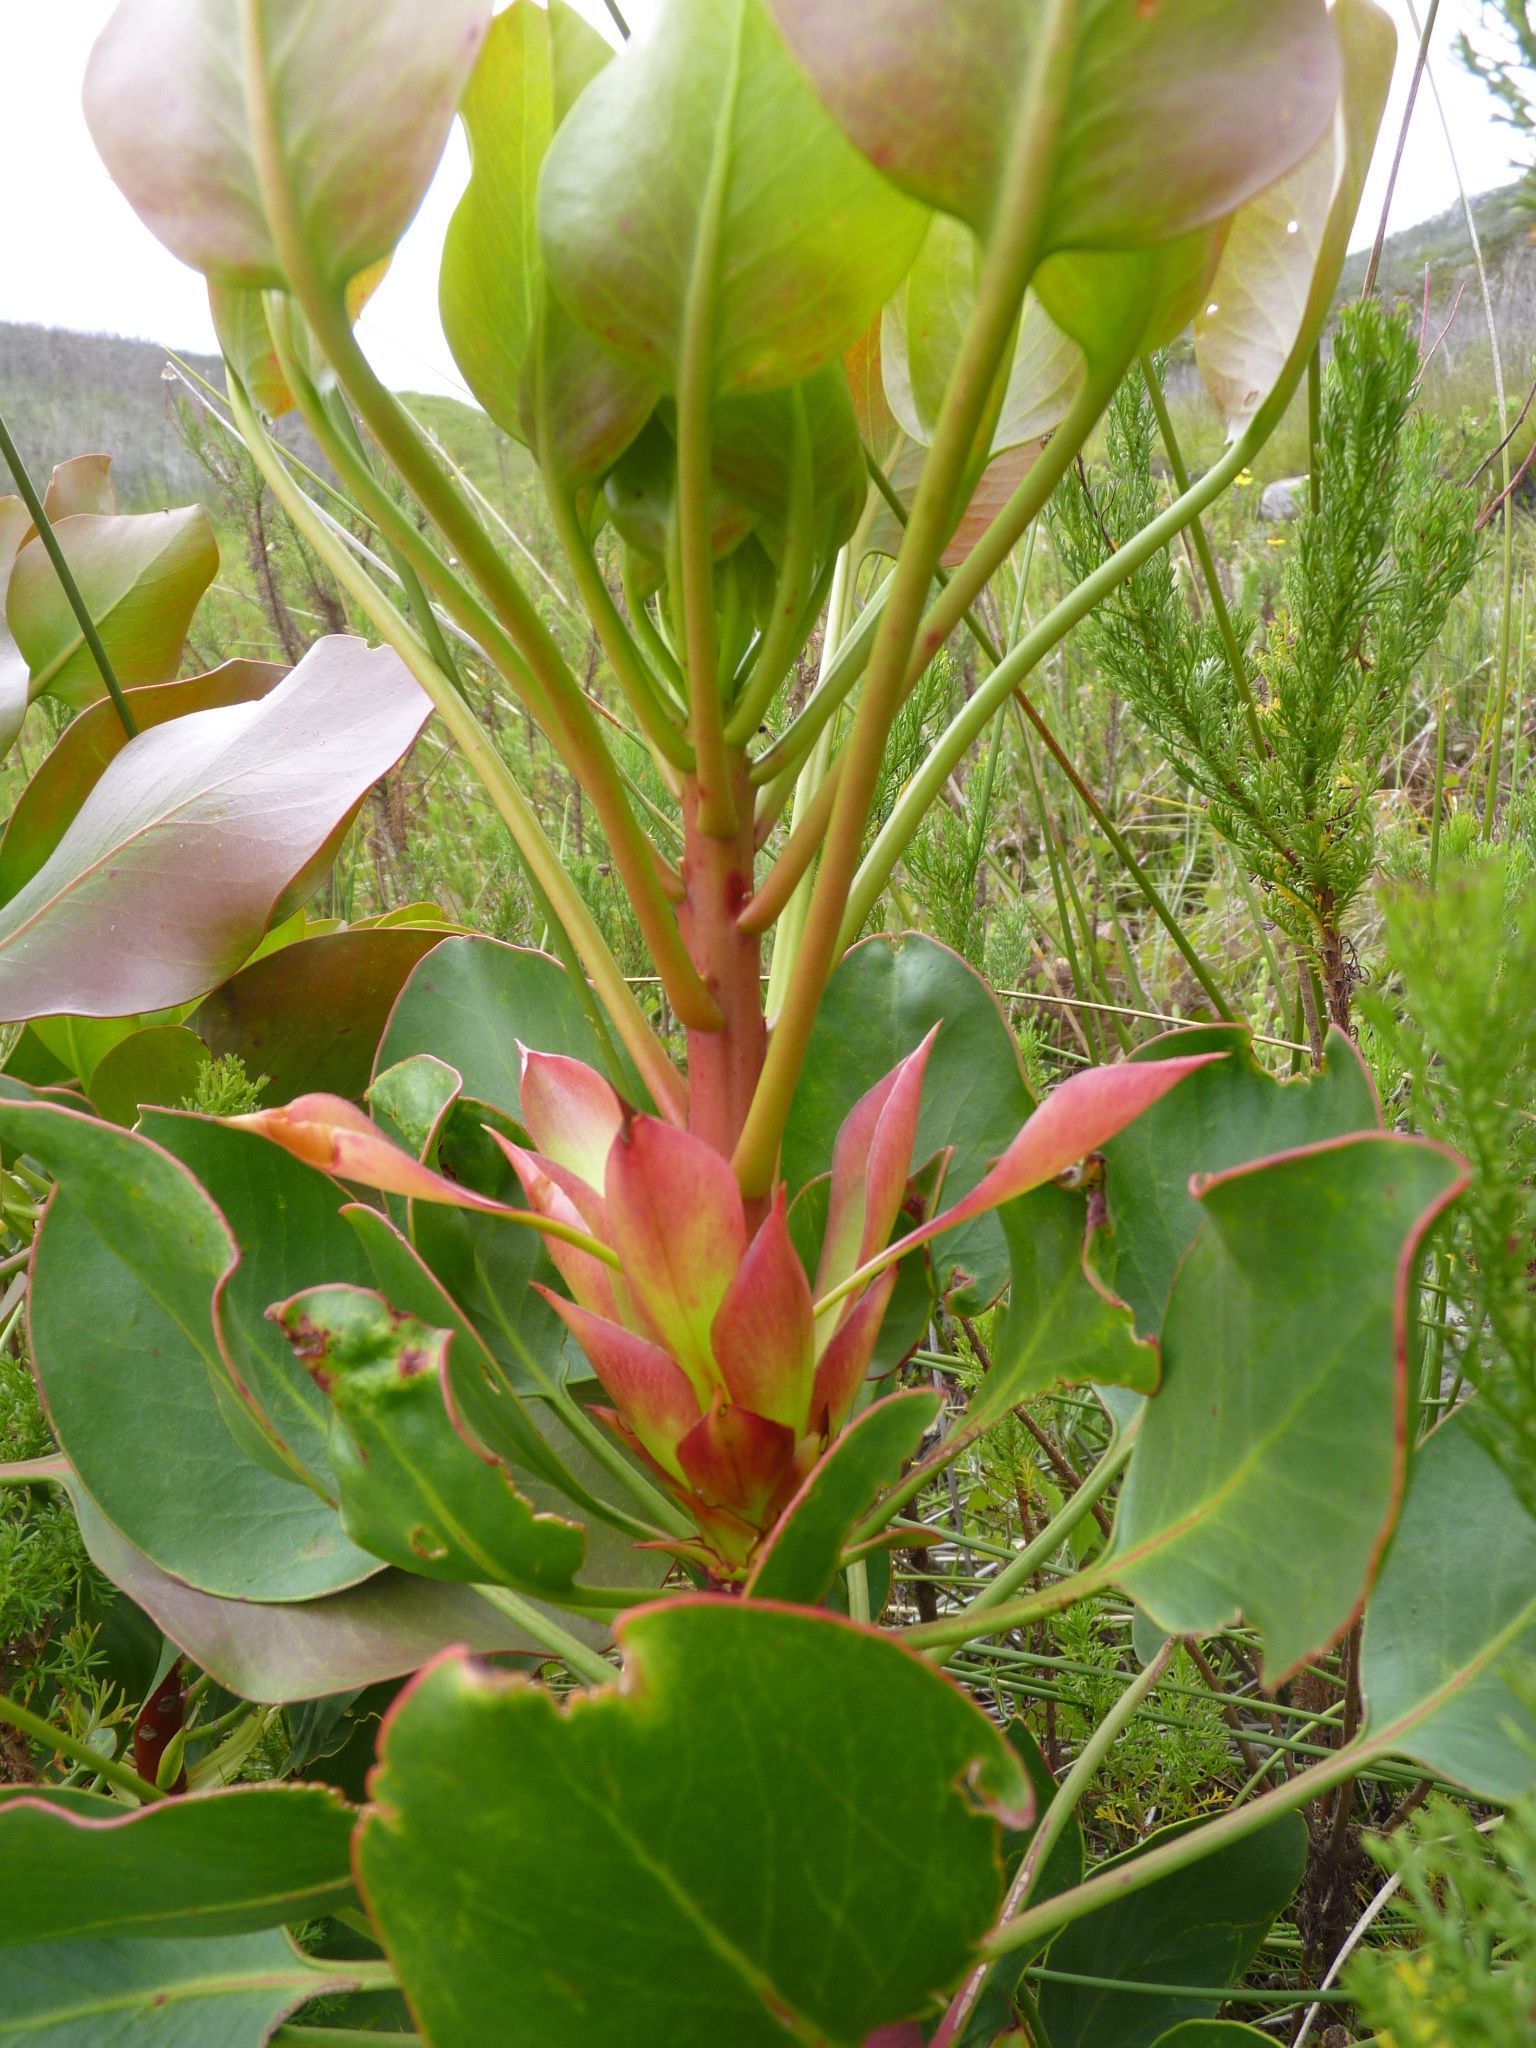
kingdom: Plantae
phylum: Tracheophyta
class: Magnoliopsida
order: Proteales
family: Proteaceae
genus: Protea
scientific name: Protea cynaroides
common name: King protea
